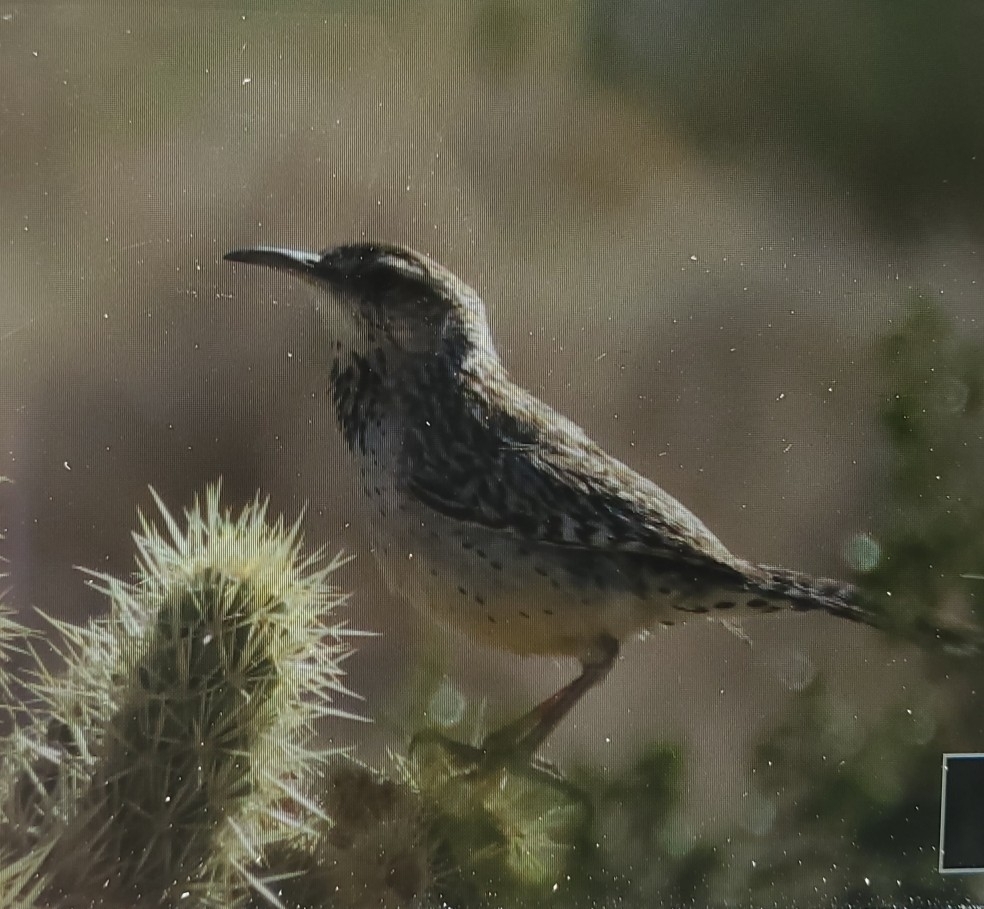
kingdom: Animalia
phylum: Chordata
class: Aves
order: Passeriformes
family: Troglodytidae
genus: Campylorhynchus
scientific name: Campylorhynchus brunneicapillus
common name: Cactus wren
